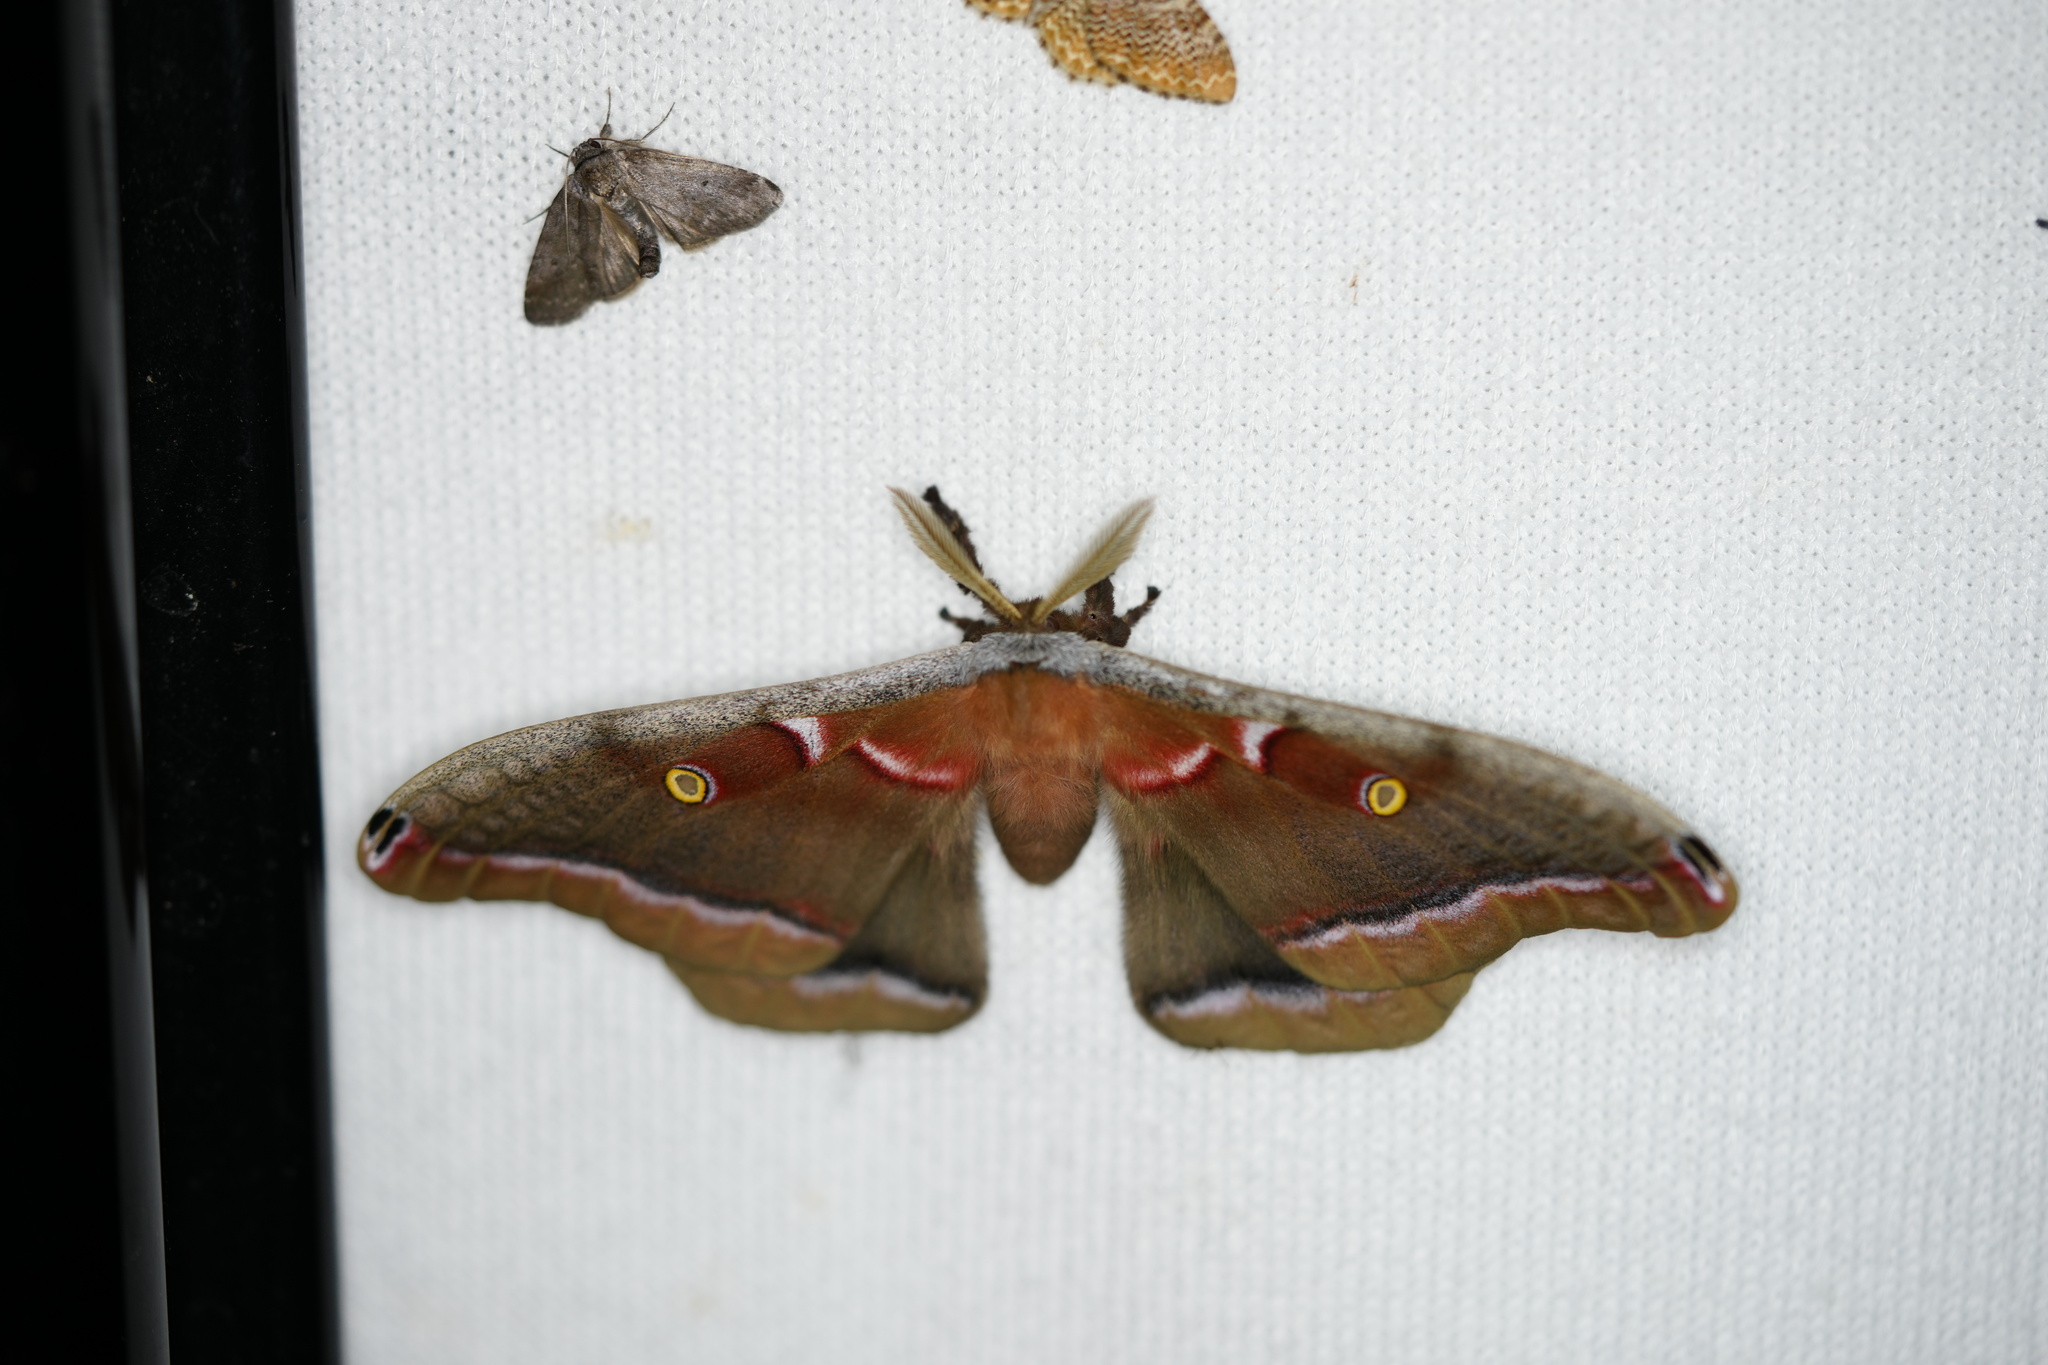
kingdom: Animalia
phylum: Arthropoda
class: Insecta
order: Lepidoptera
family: Saturniidae
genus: Antheraea
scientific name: Antheraea polyphemus
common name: Polyphemus moth
